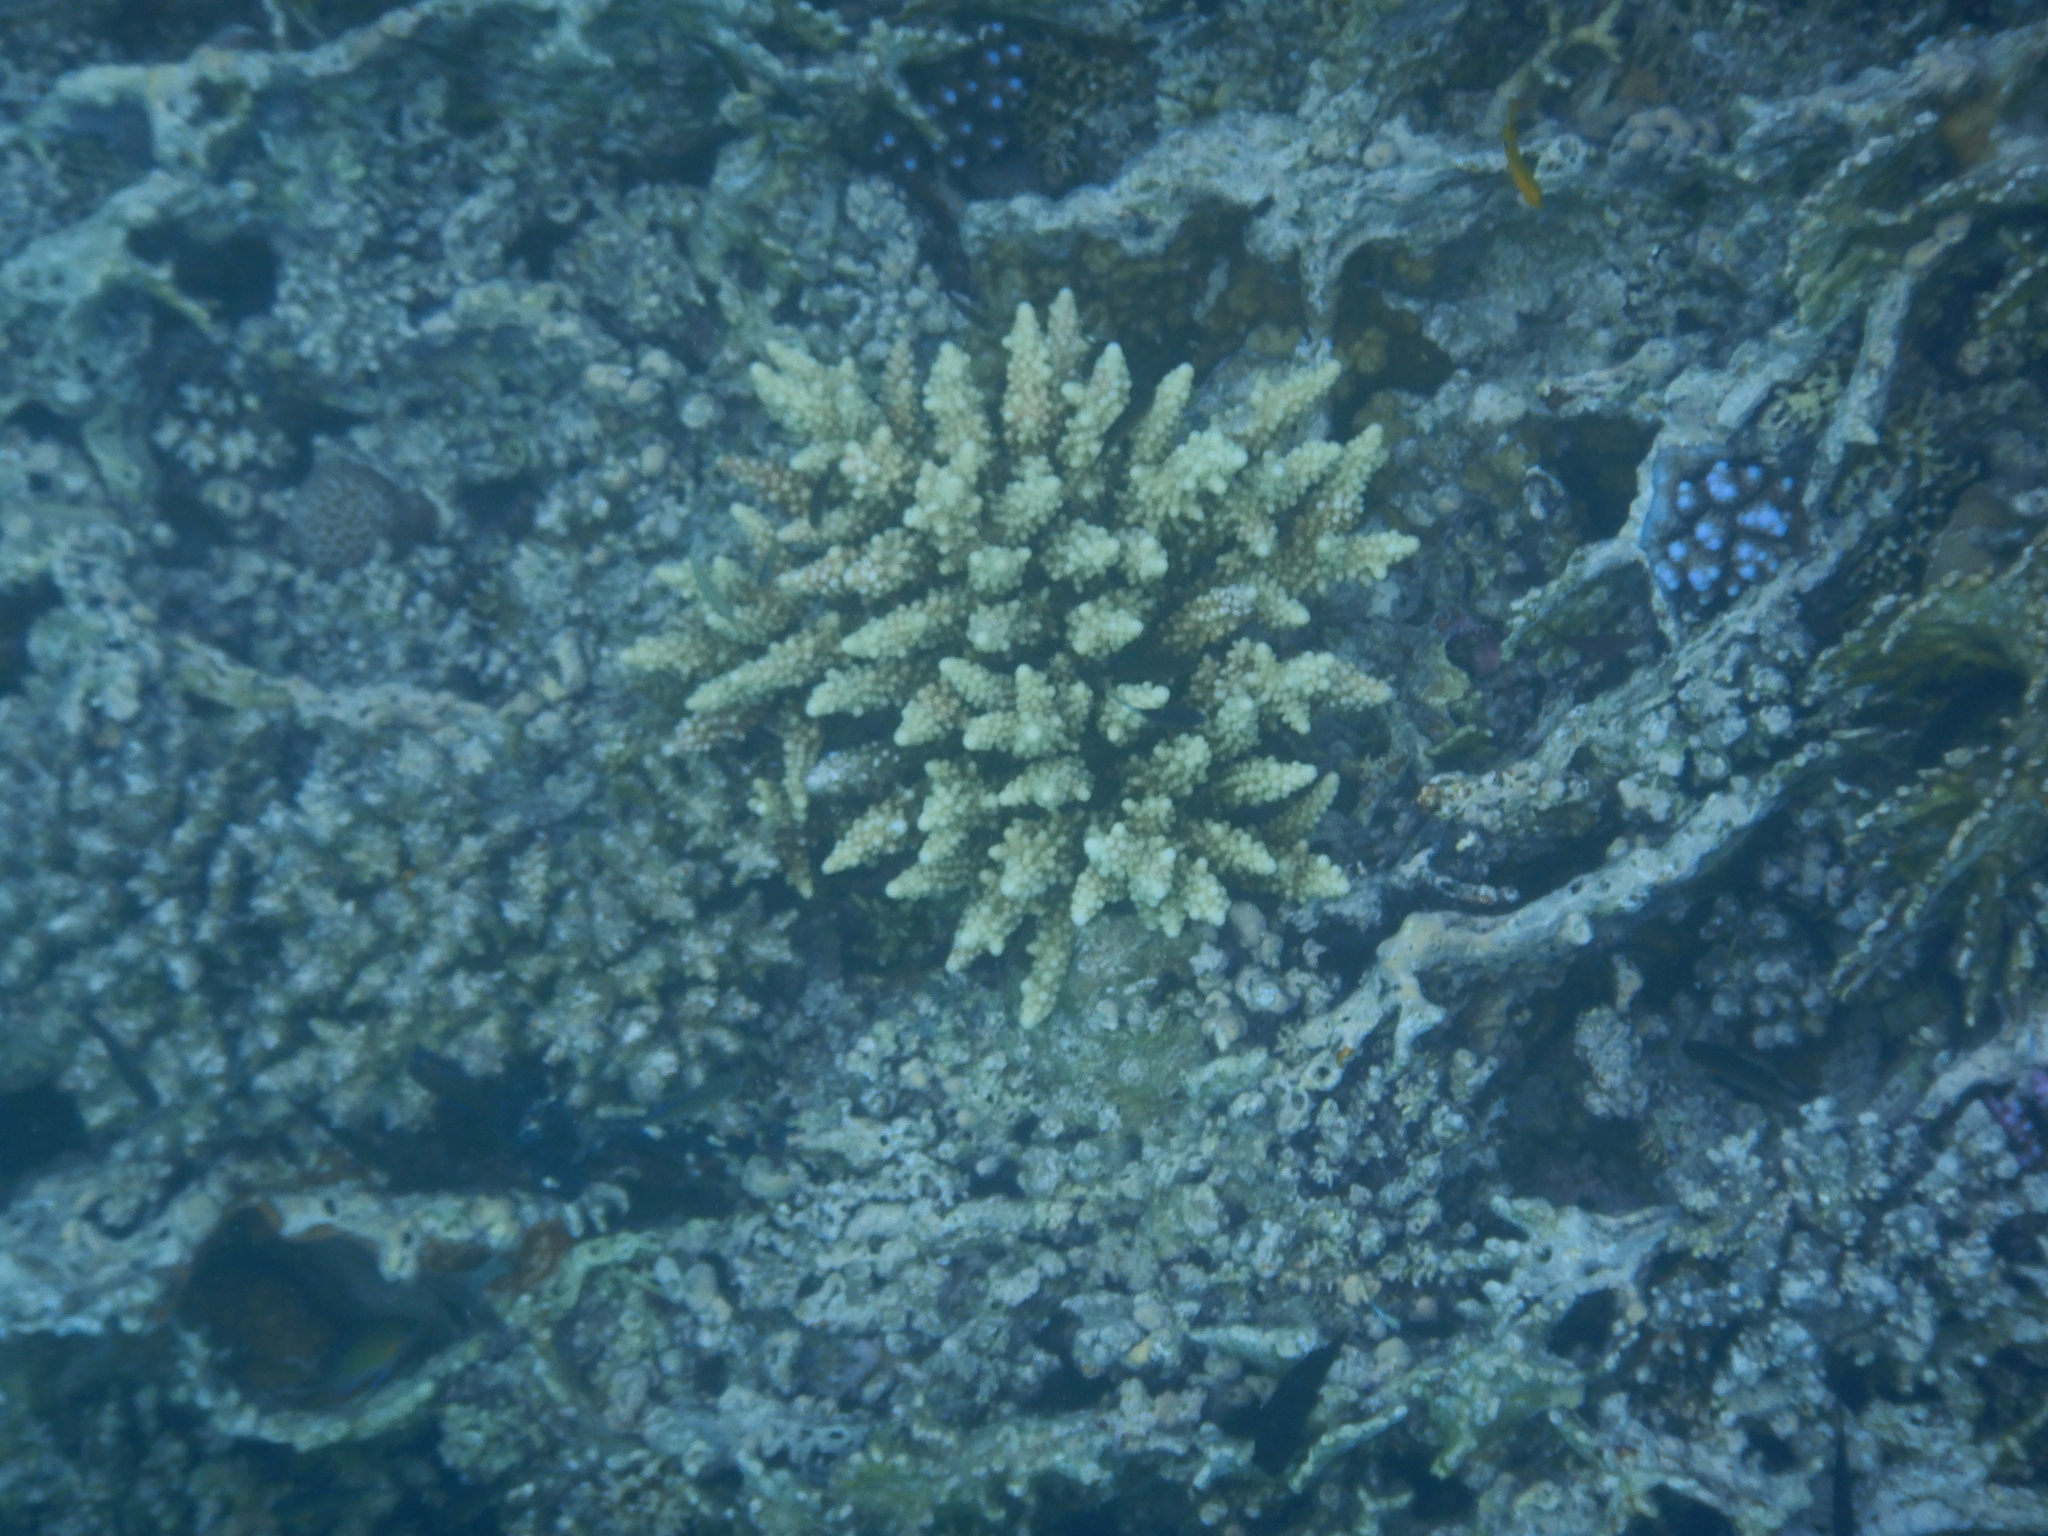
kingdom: Animalia
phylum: Cnidaria
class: Anthozoa
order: Scleractinia
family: Acroporidae
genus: Acropora
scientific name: Acropora gemmifera
